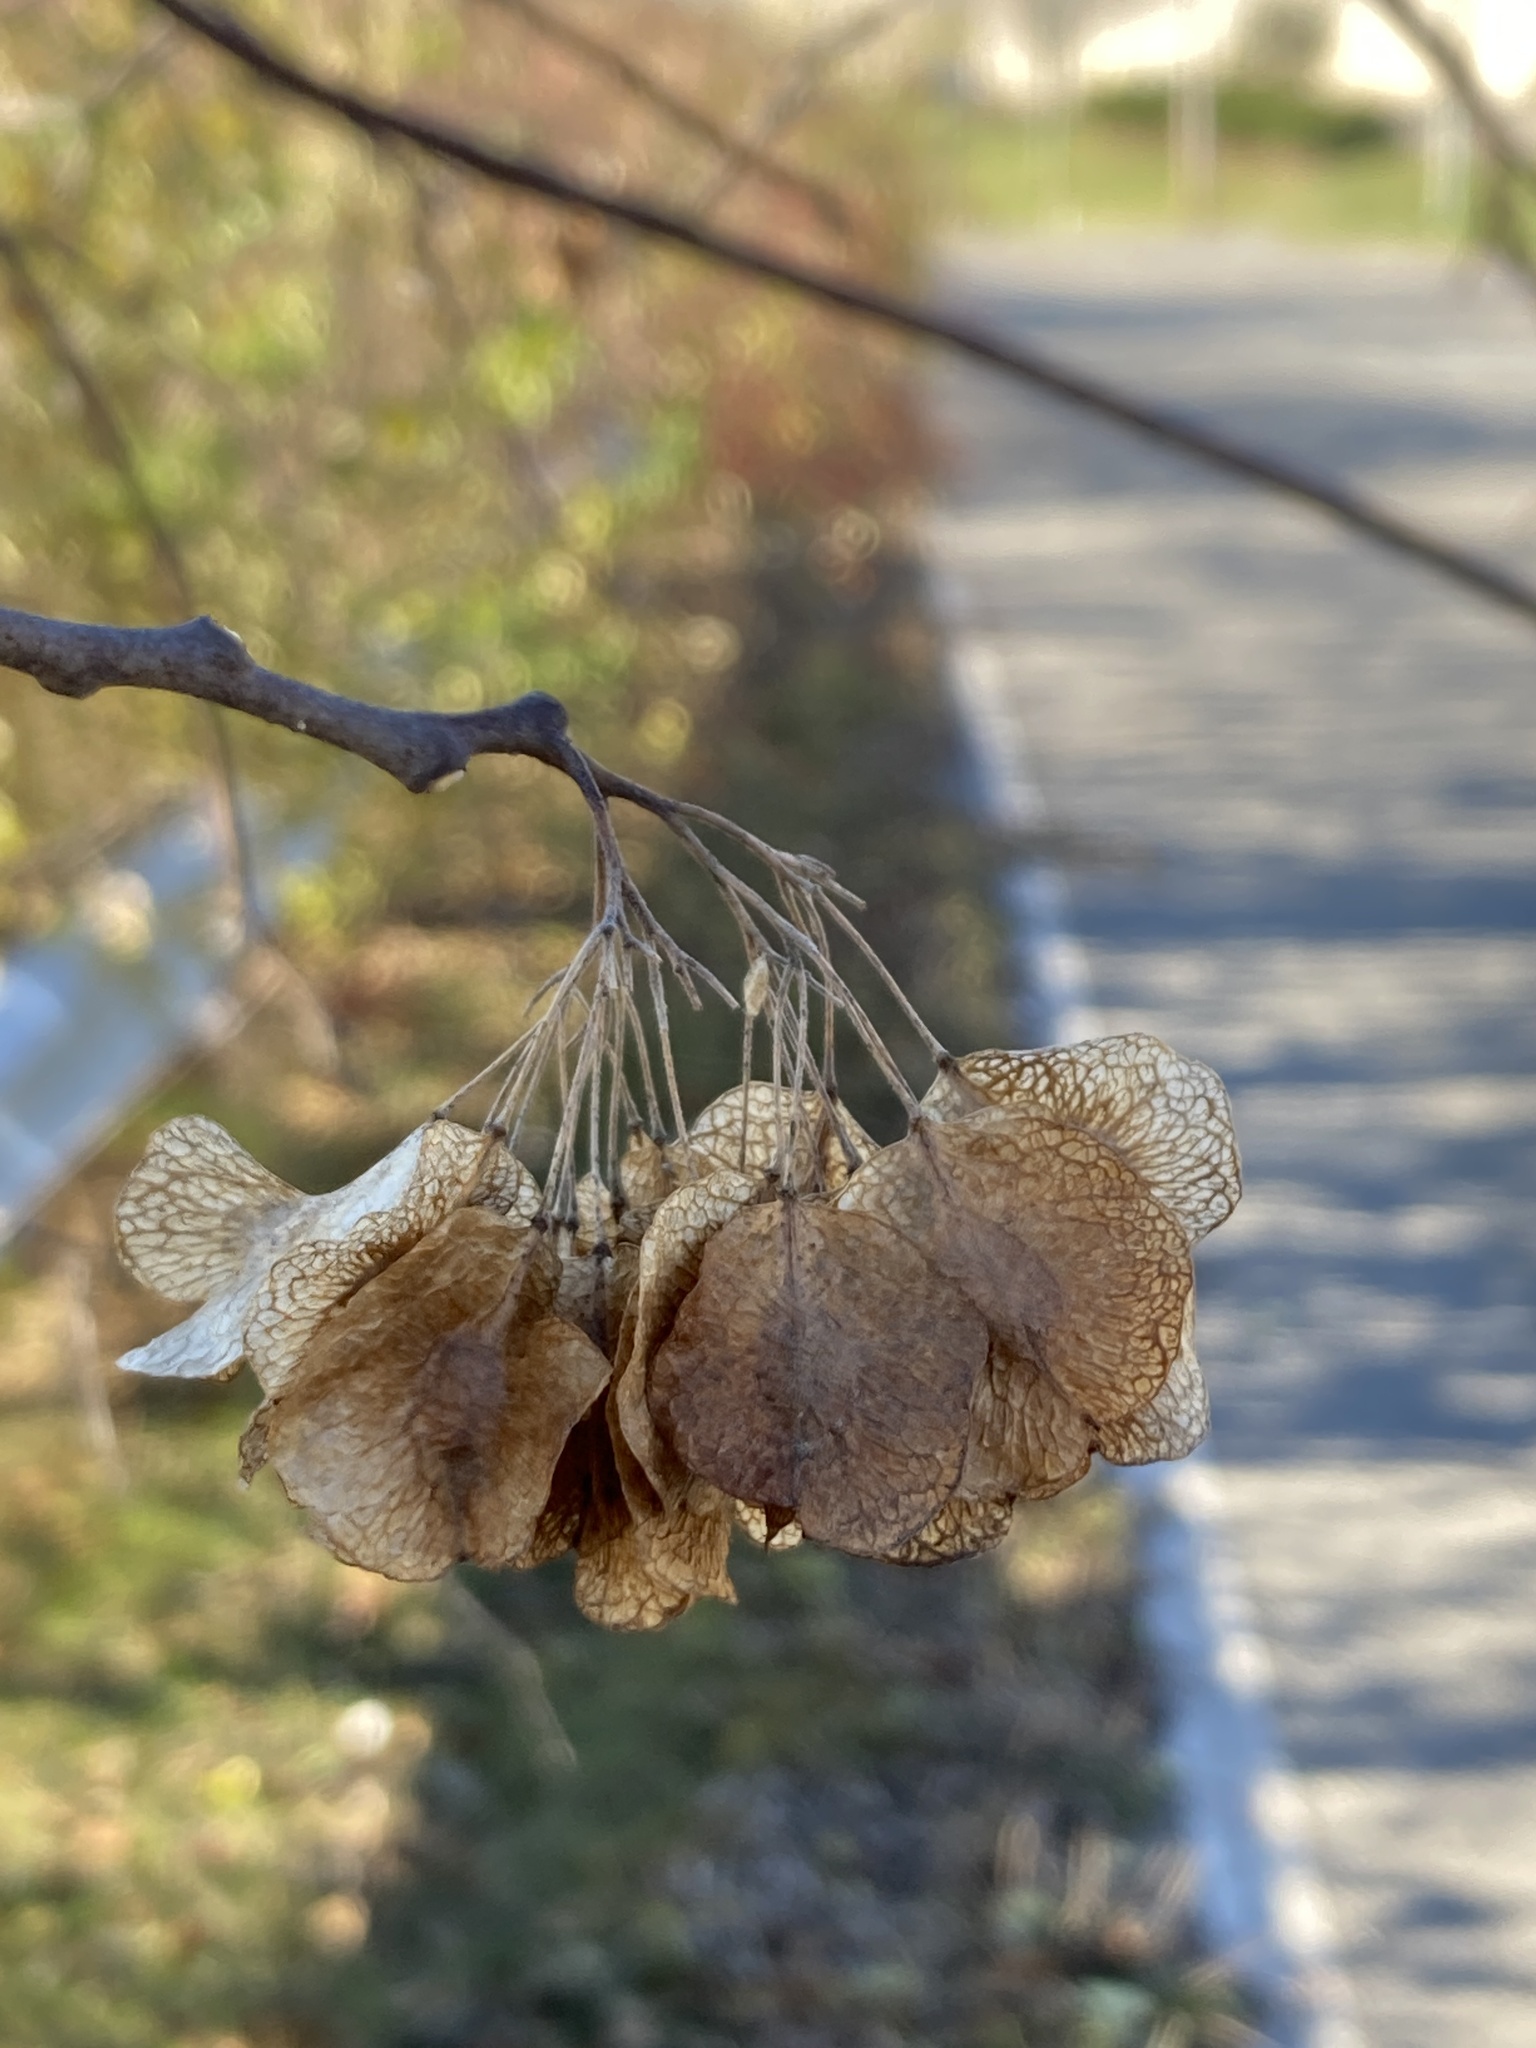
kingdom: Plantae
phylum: Tracheophyta
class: Magnoliopsida
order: Sapindales
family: Rutaceae
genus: Ptelea
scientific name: Ptelea trifoliata
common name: Common hop-tree
